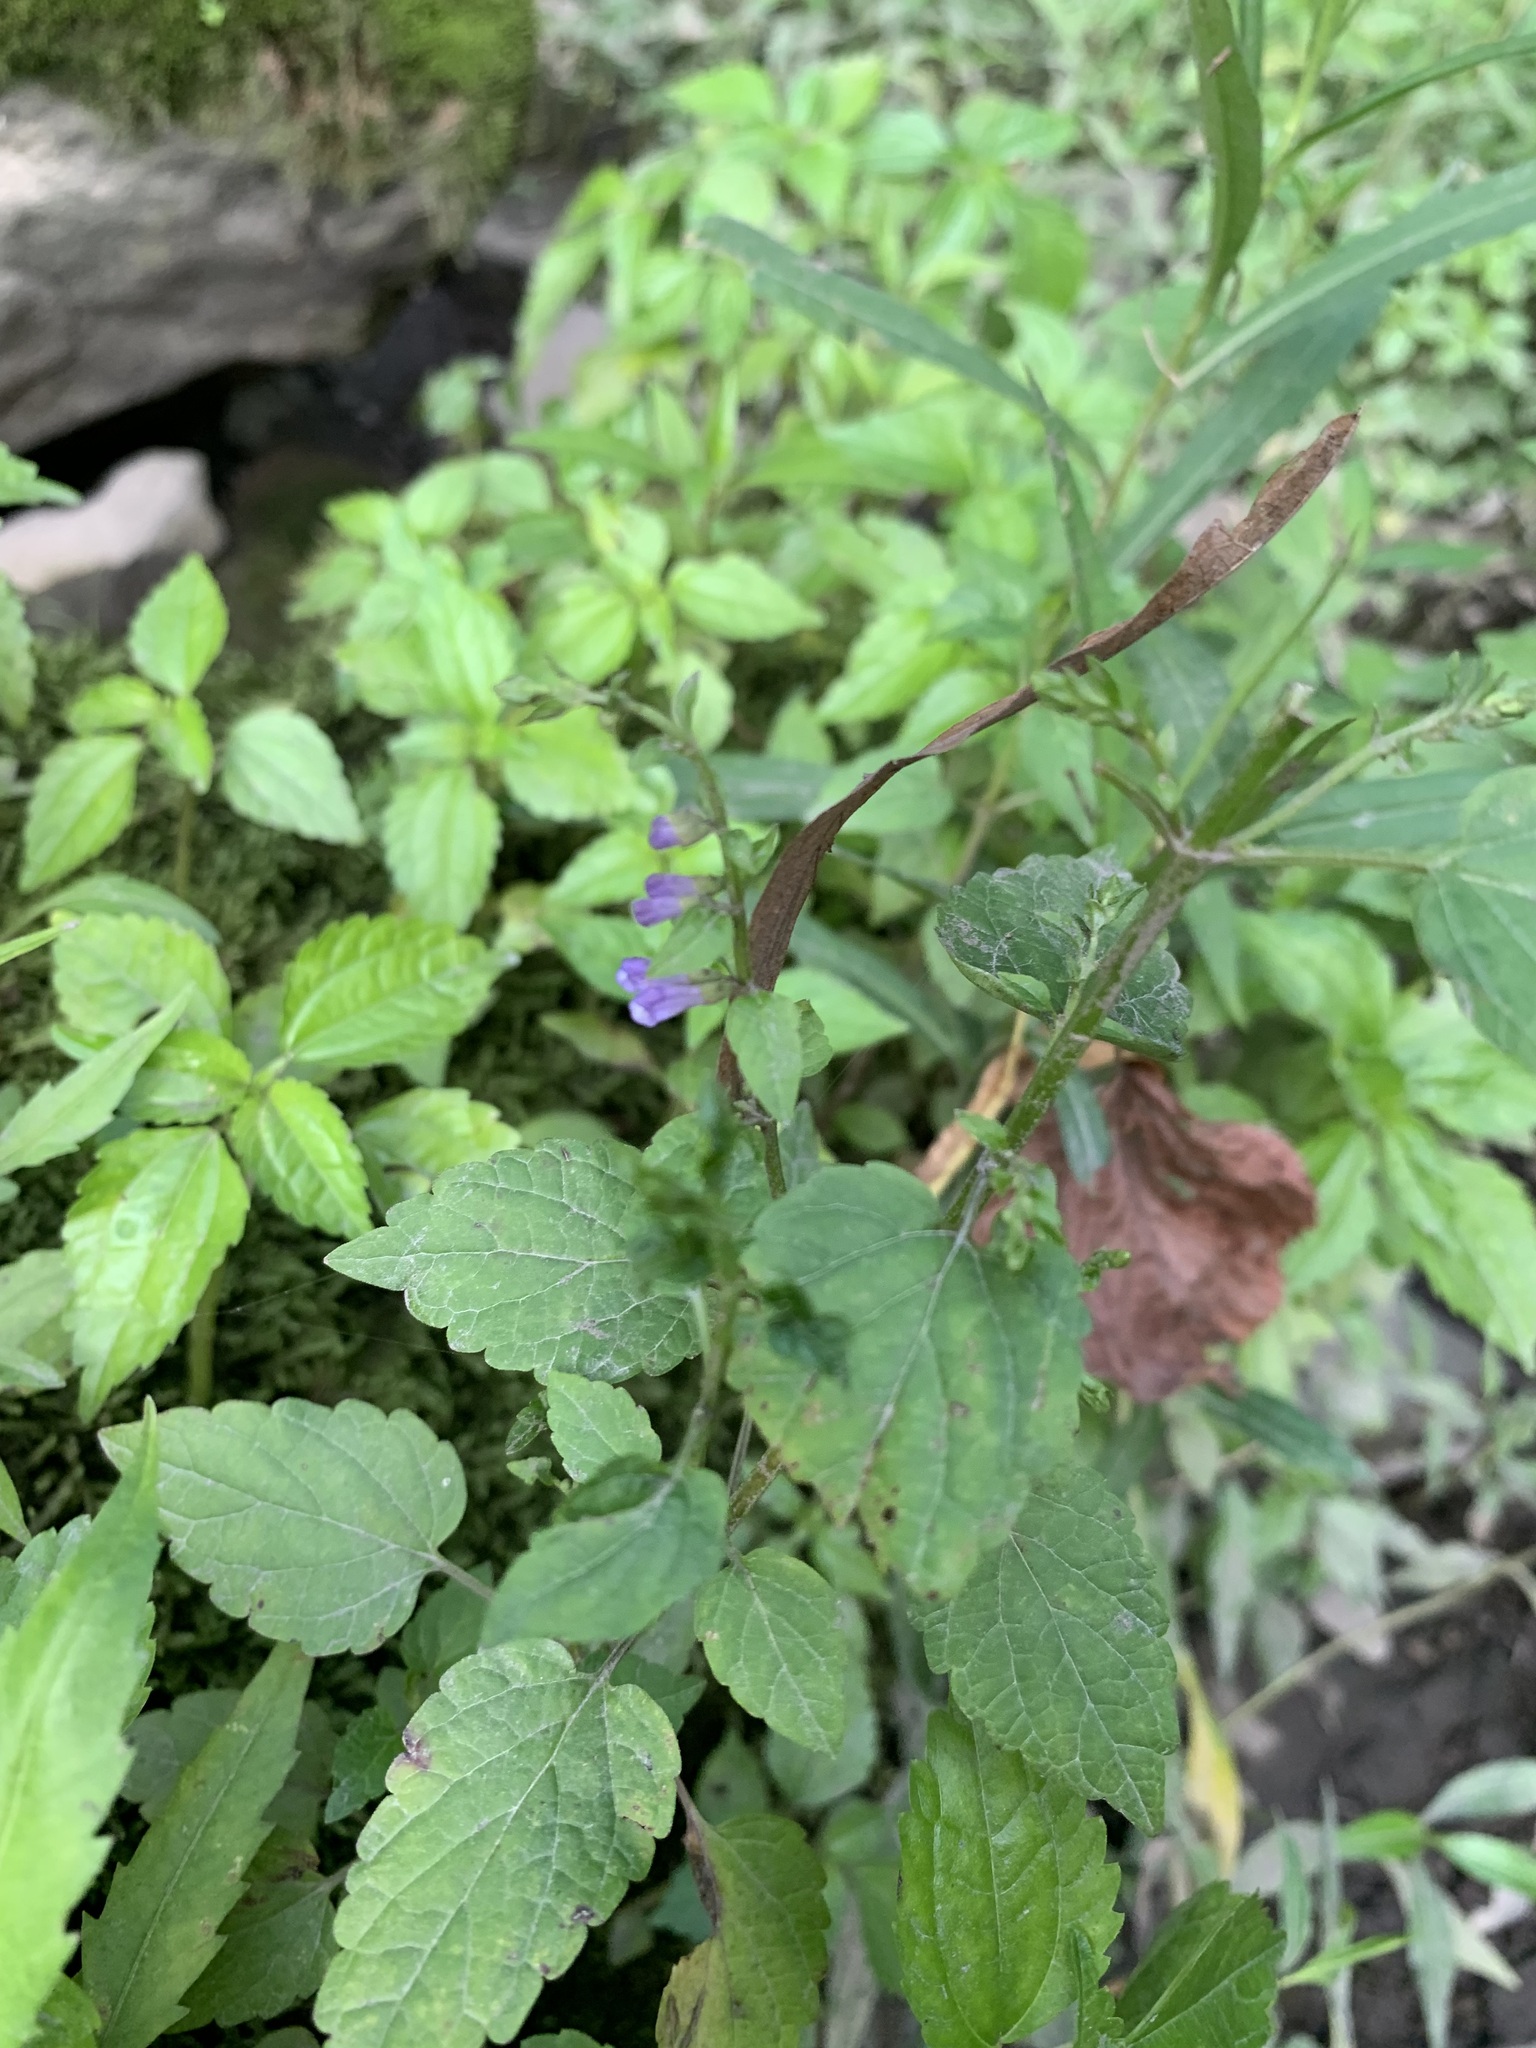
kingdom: Plantae
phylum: Tracheophyta
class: Magnoliopsida
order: Lamiales
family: Lamiaceae
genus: Scutellaria
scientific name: Scutellaria lateriflora
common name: Blue skullcap
